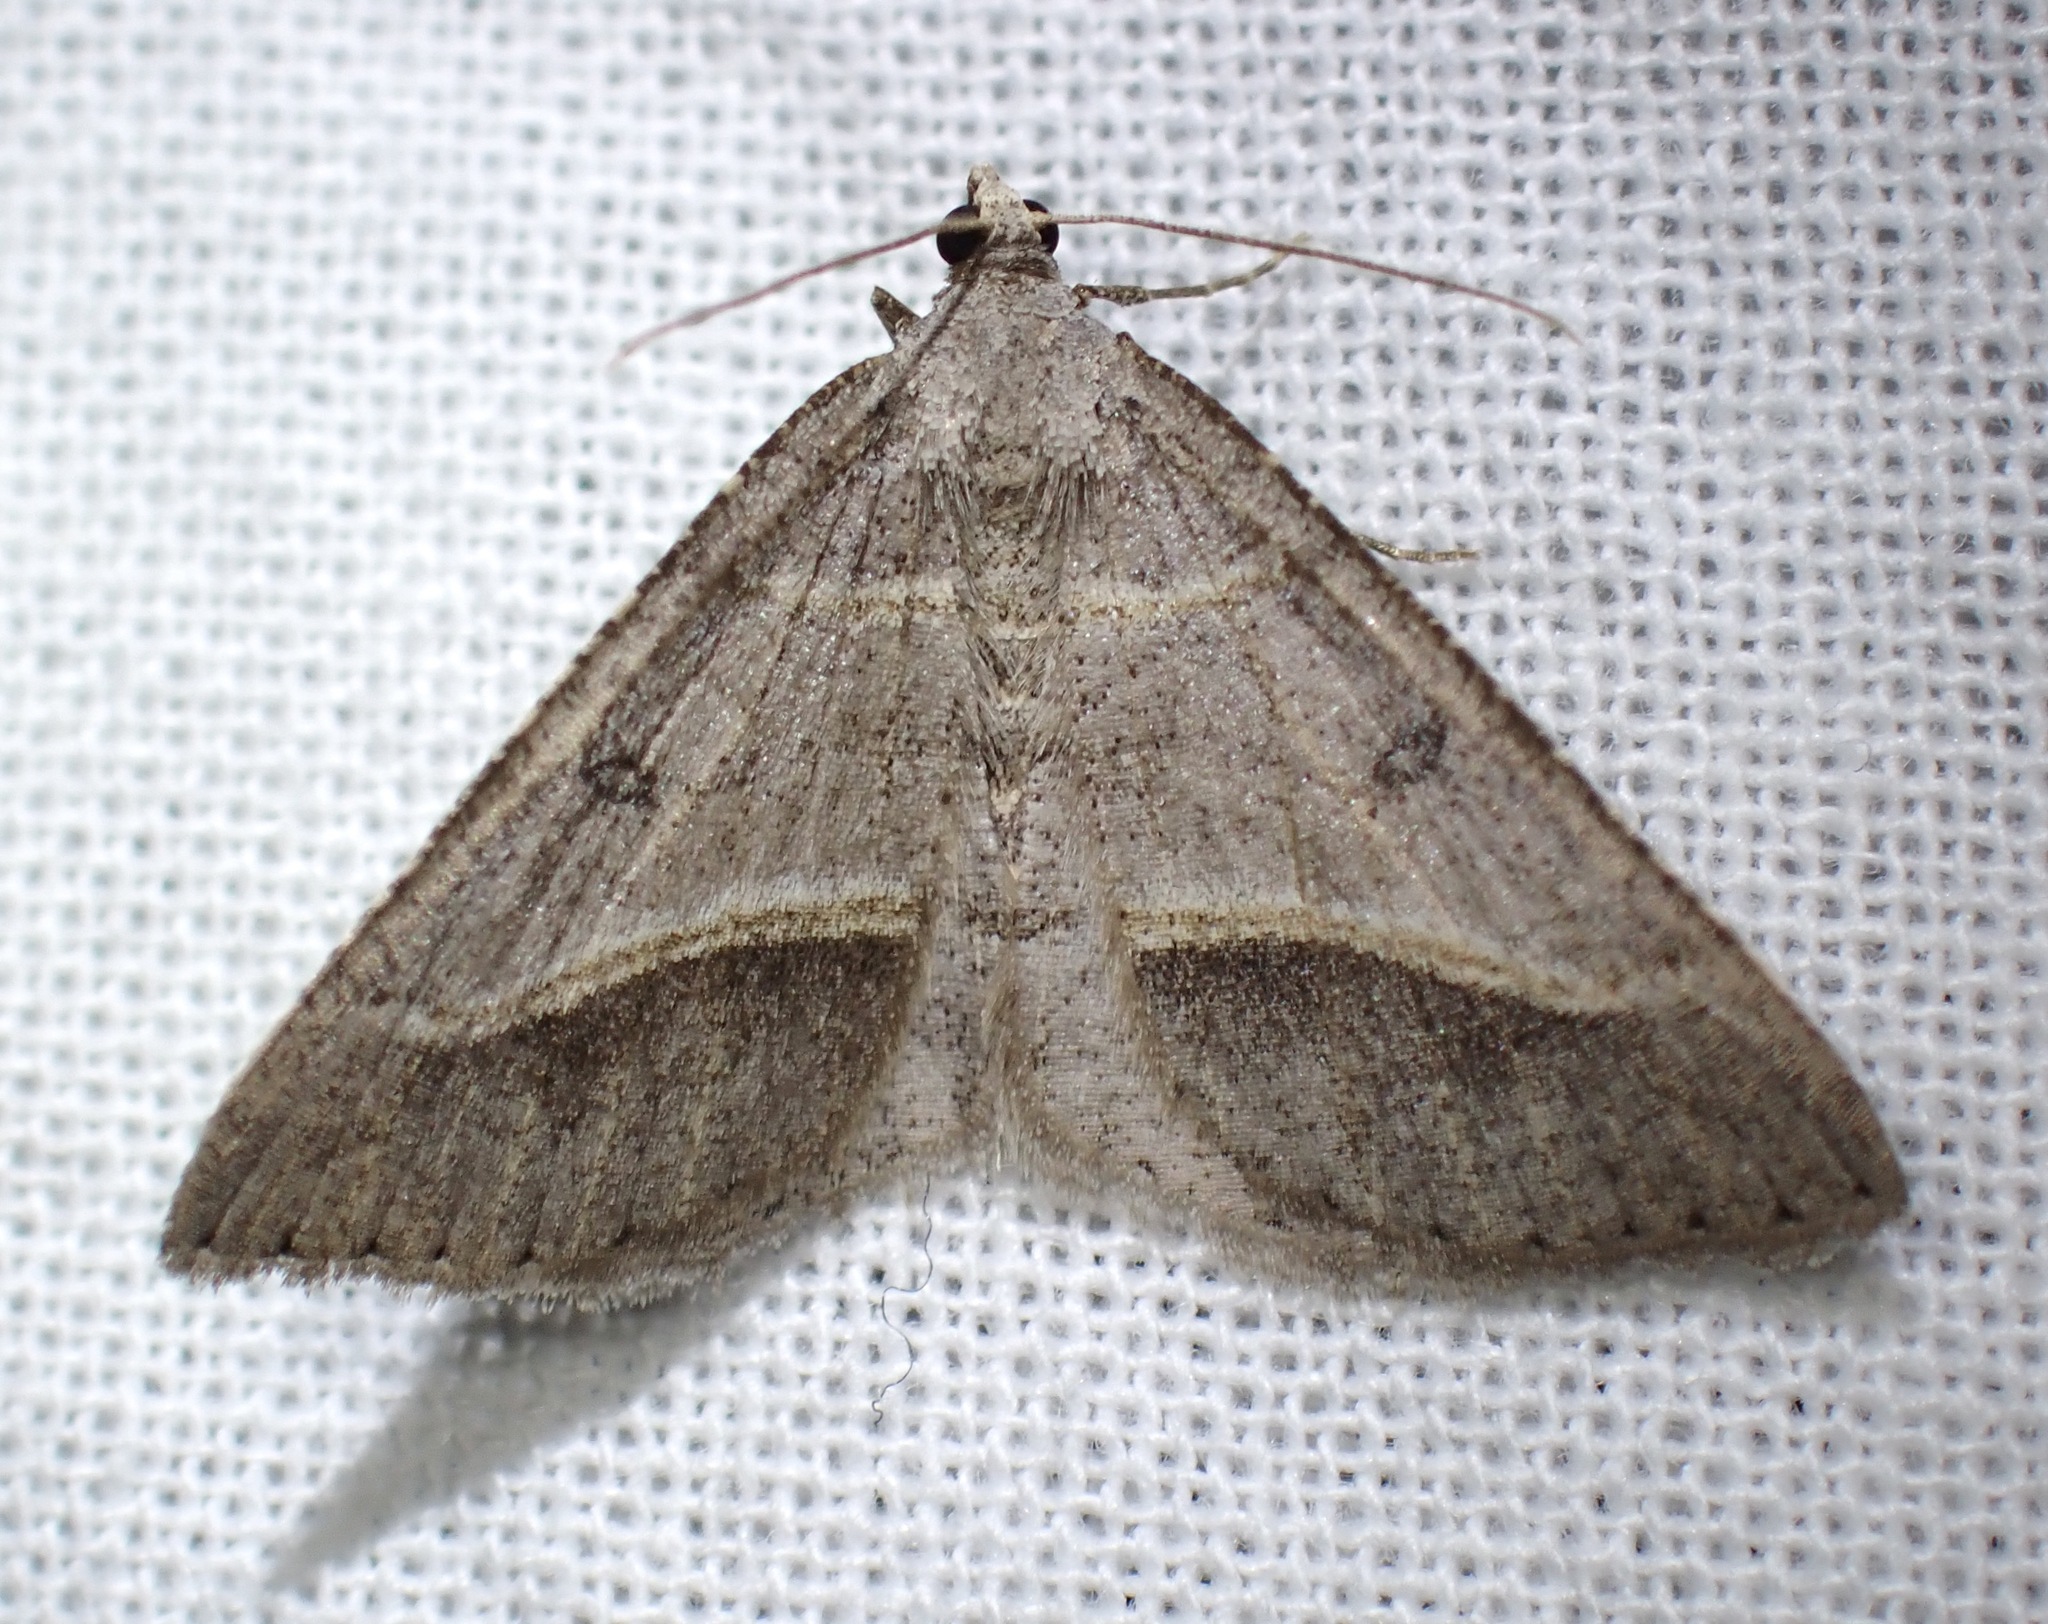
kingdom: Animalia
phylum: Arthropoda
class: Insecta
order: Lepidoptera
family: Geometridae
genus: Digrammia
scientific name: Digrammia neptaria
